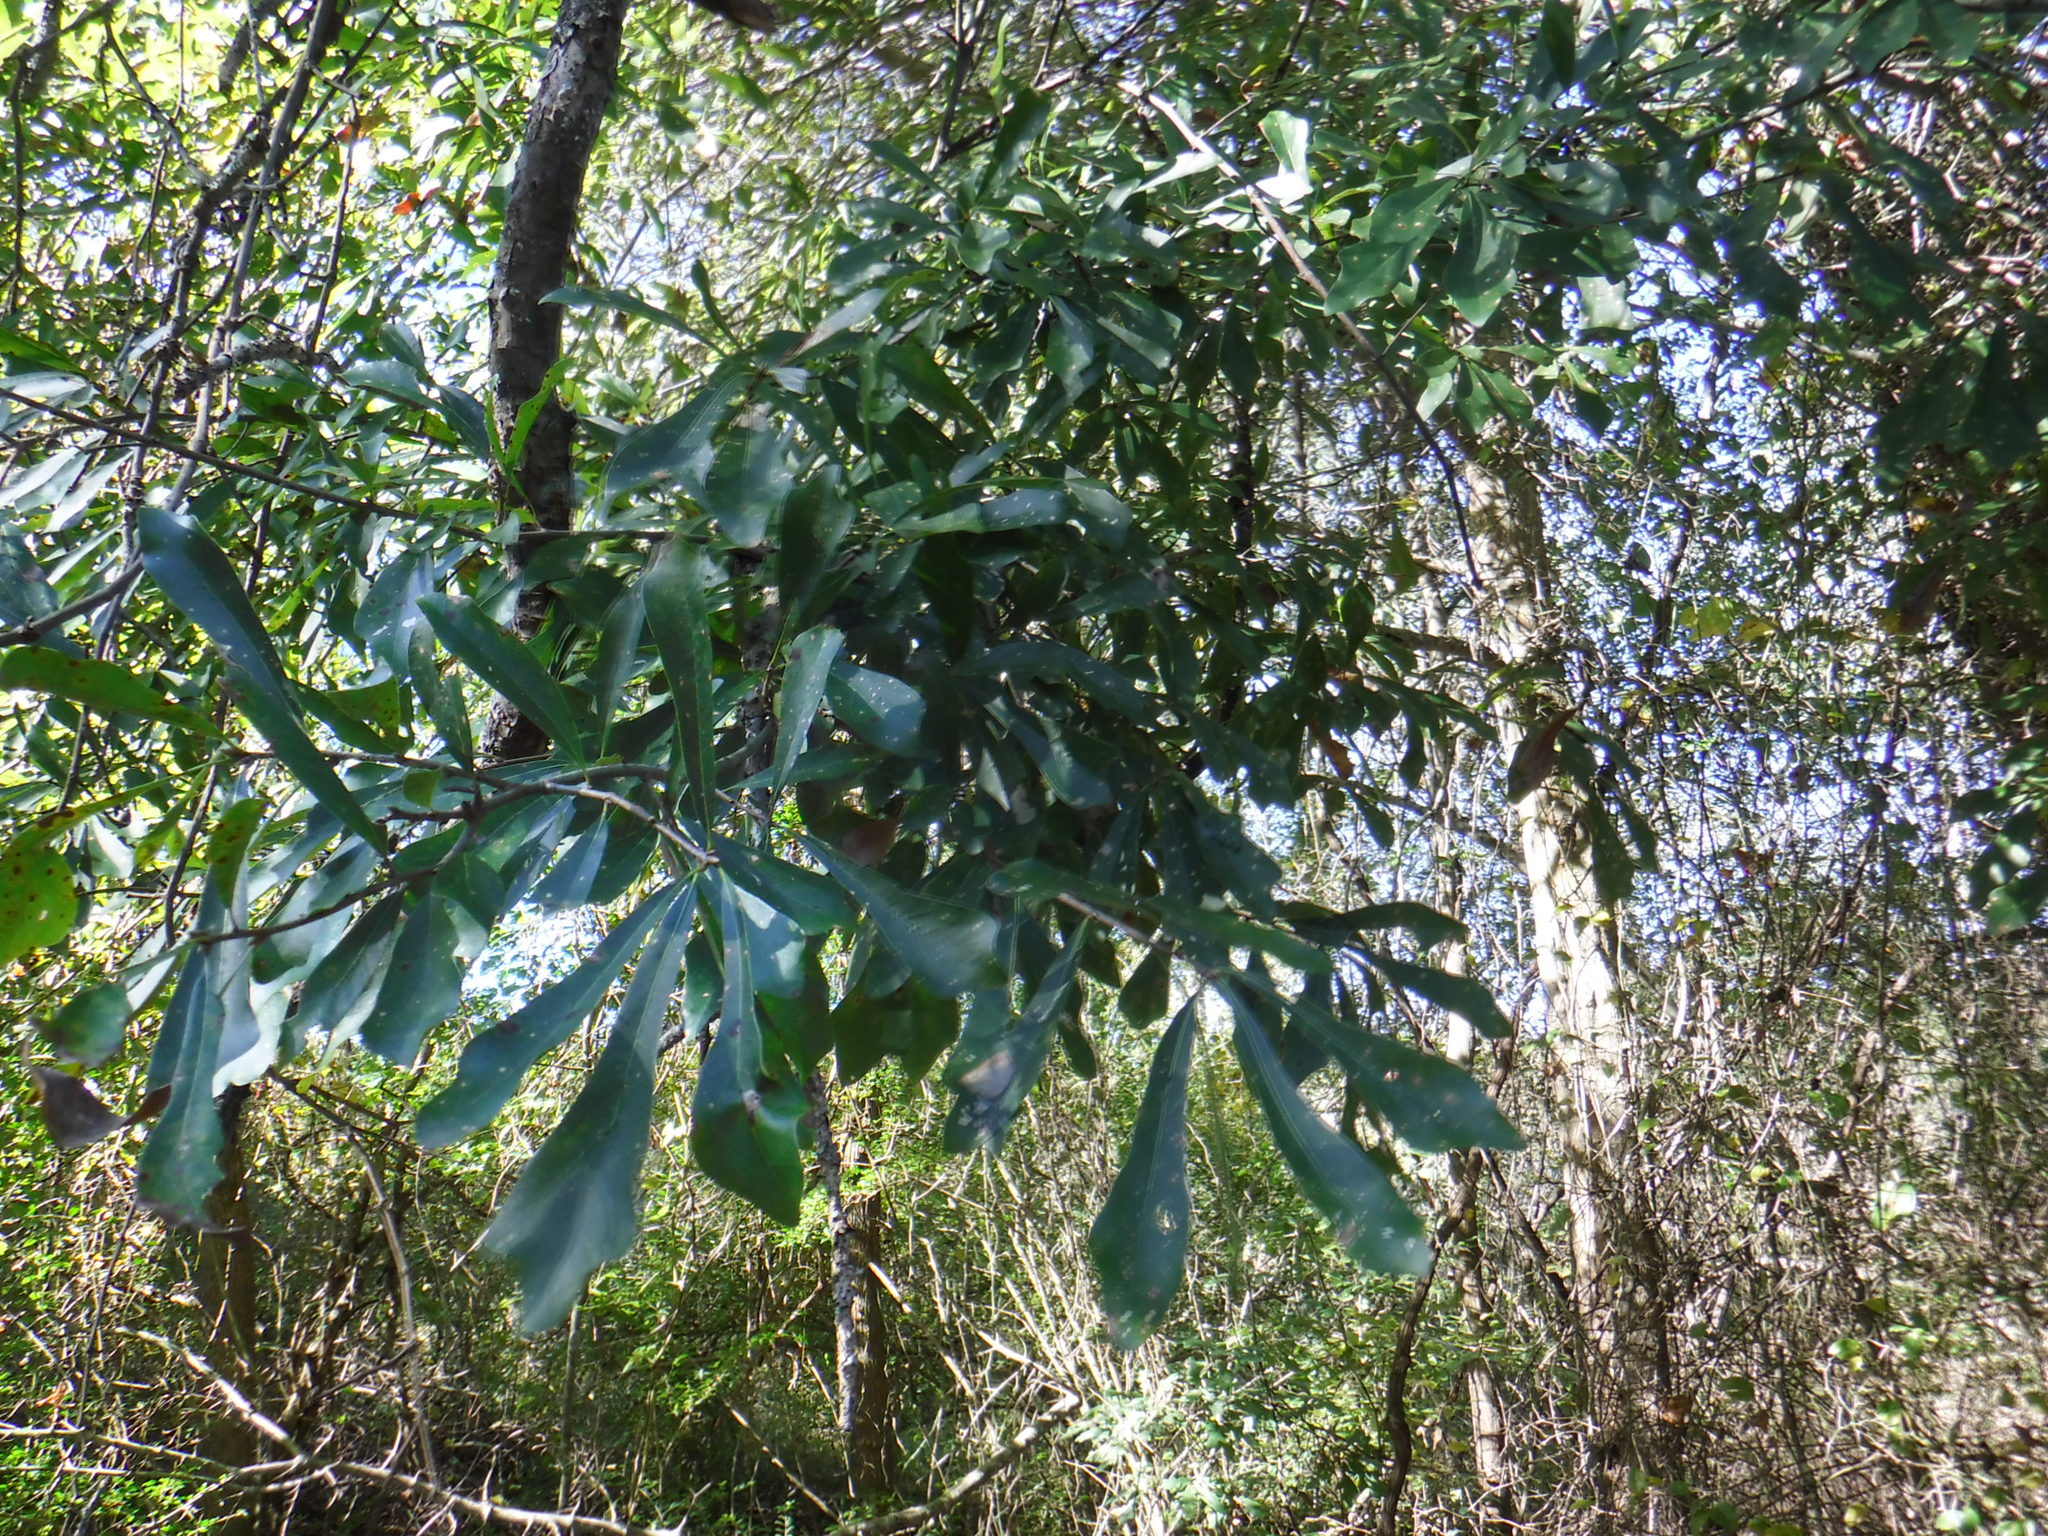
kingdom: Plantae
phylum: Tracheophyta
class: Magnoliopsida
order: Fagales
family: Fagaceae
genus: Quercus
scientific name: Quercus nigra
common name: Water oak
